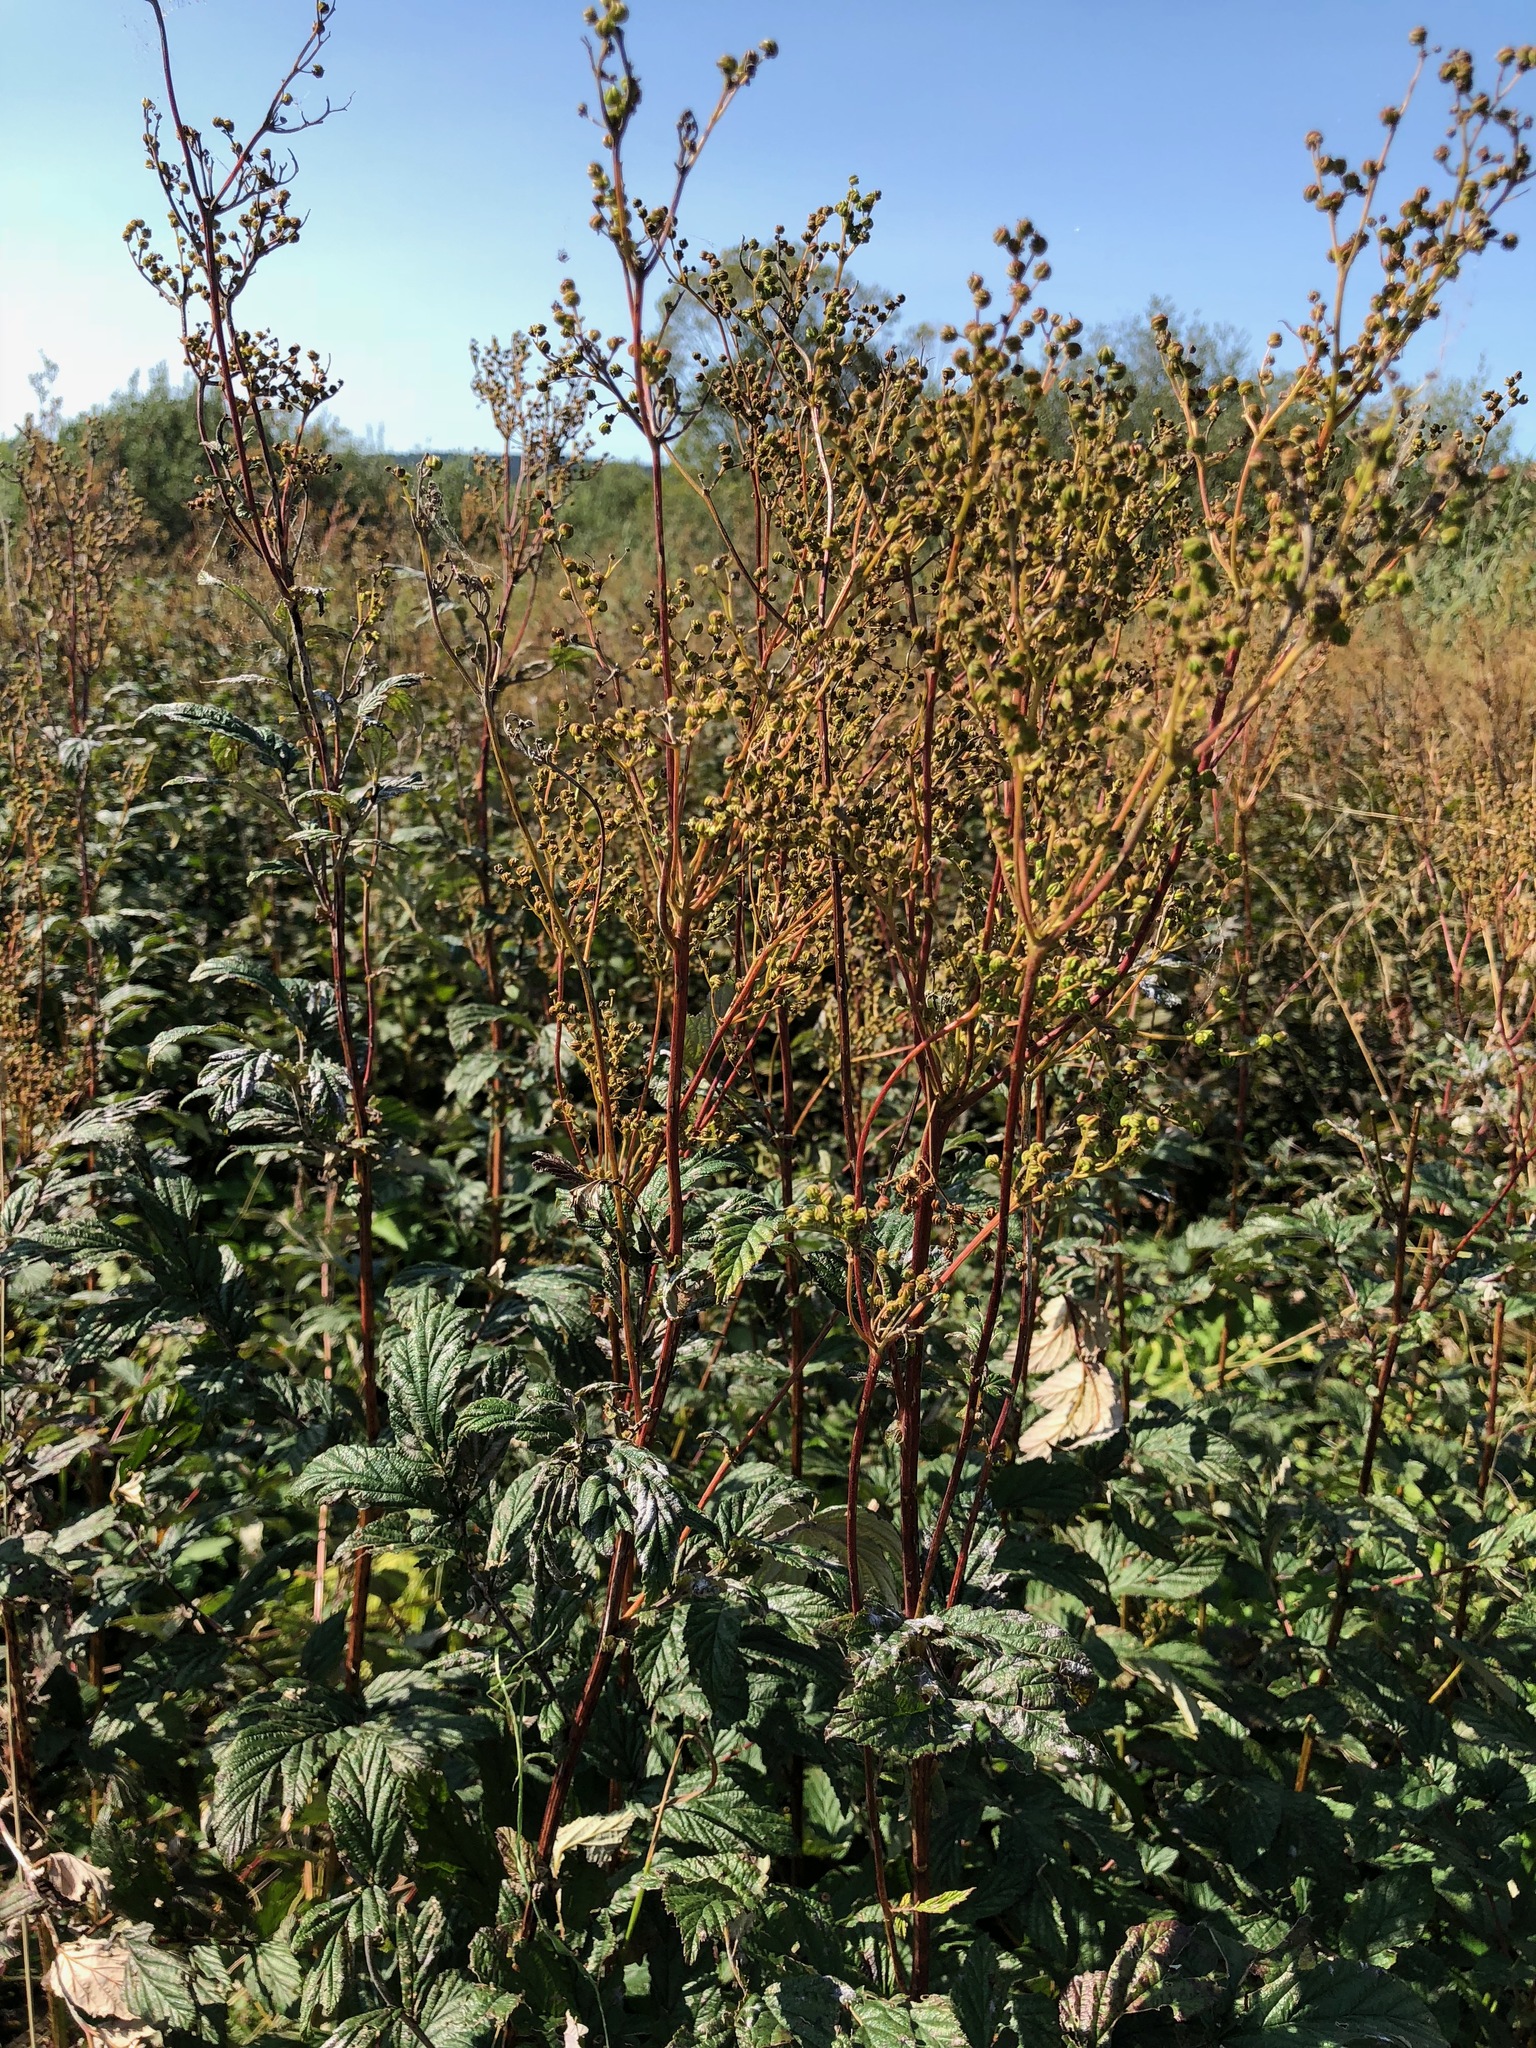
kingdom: Plantae
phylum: Tracheophyta
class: Magnoliopsida
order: Rosales
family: Rosaceae
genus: Filipendula
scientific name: Filipendula ulmaria
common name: Meadowsweet
